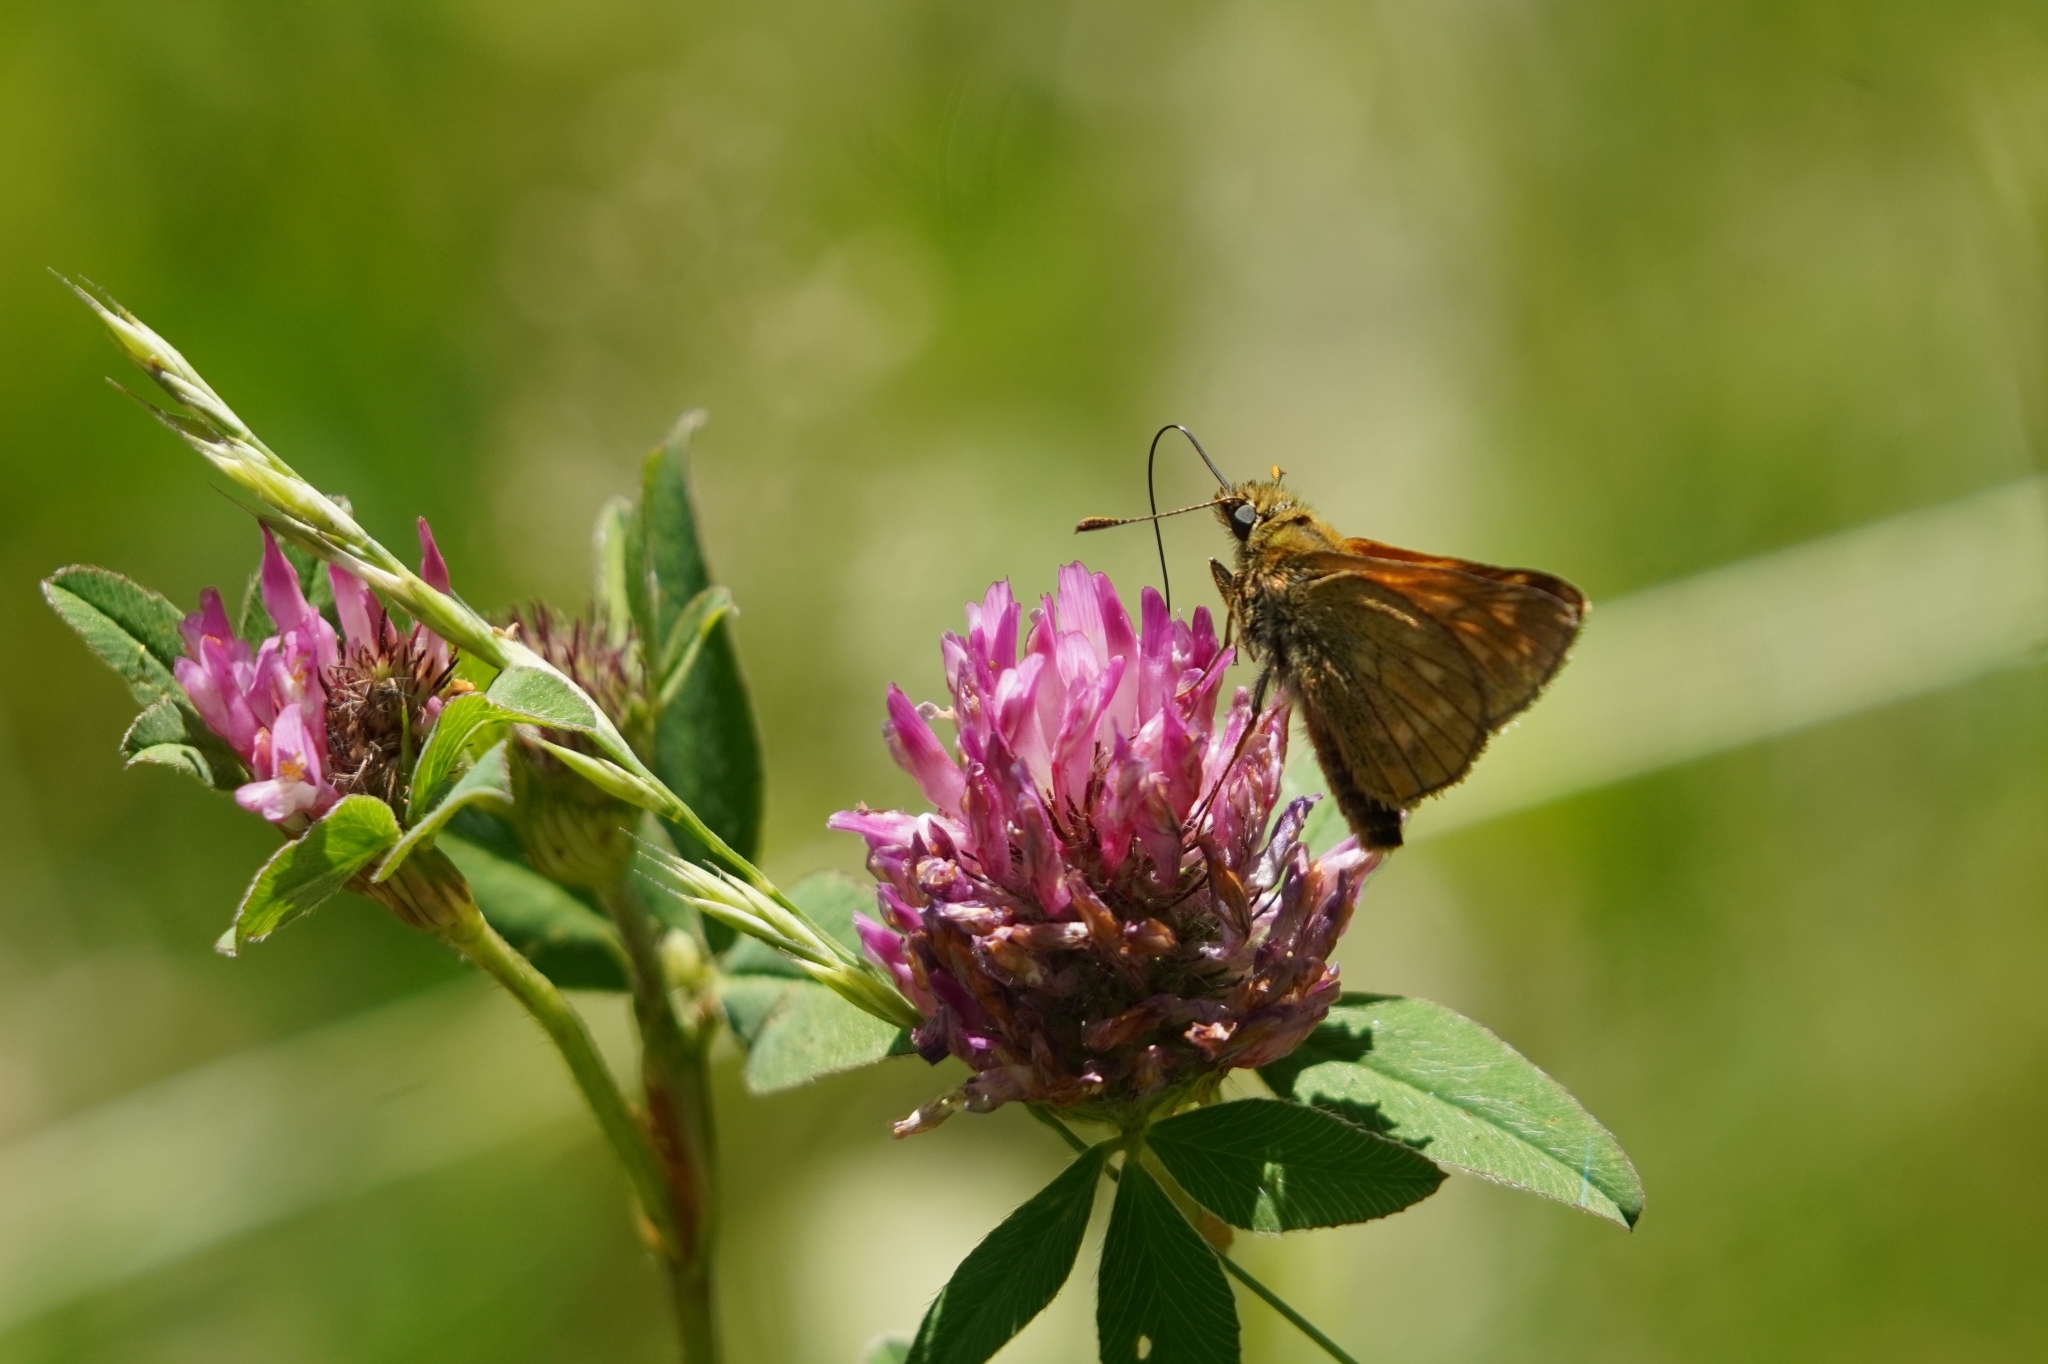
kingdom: Animalia
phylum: Arthropoda
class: Insecta
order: Lepidoptera
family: Hesperiidae
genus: Ochlodes
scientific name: Ochlodes venata
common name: Large skipper
